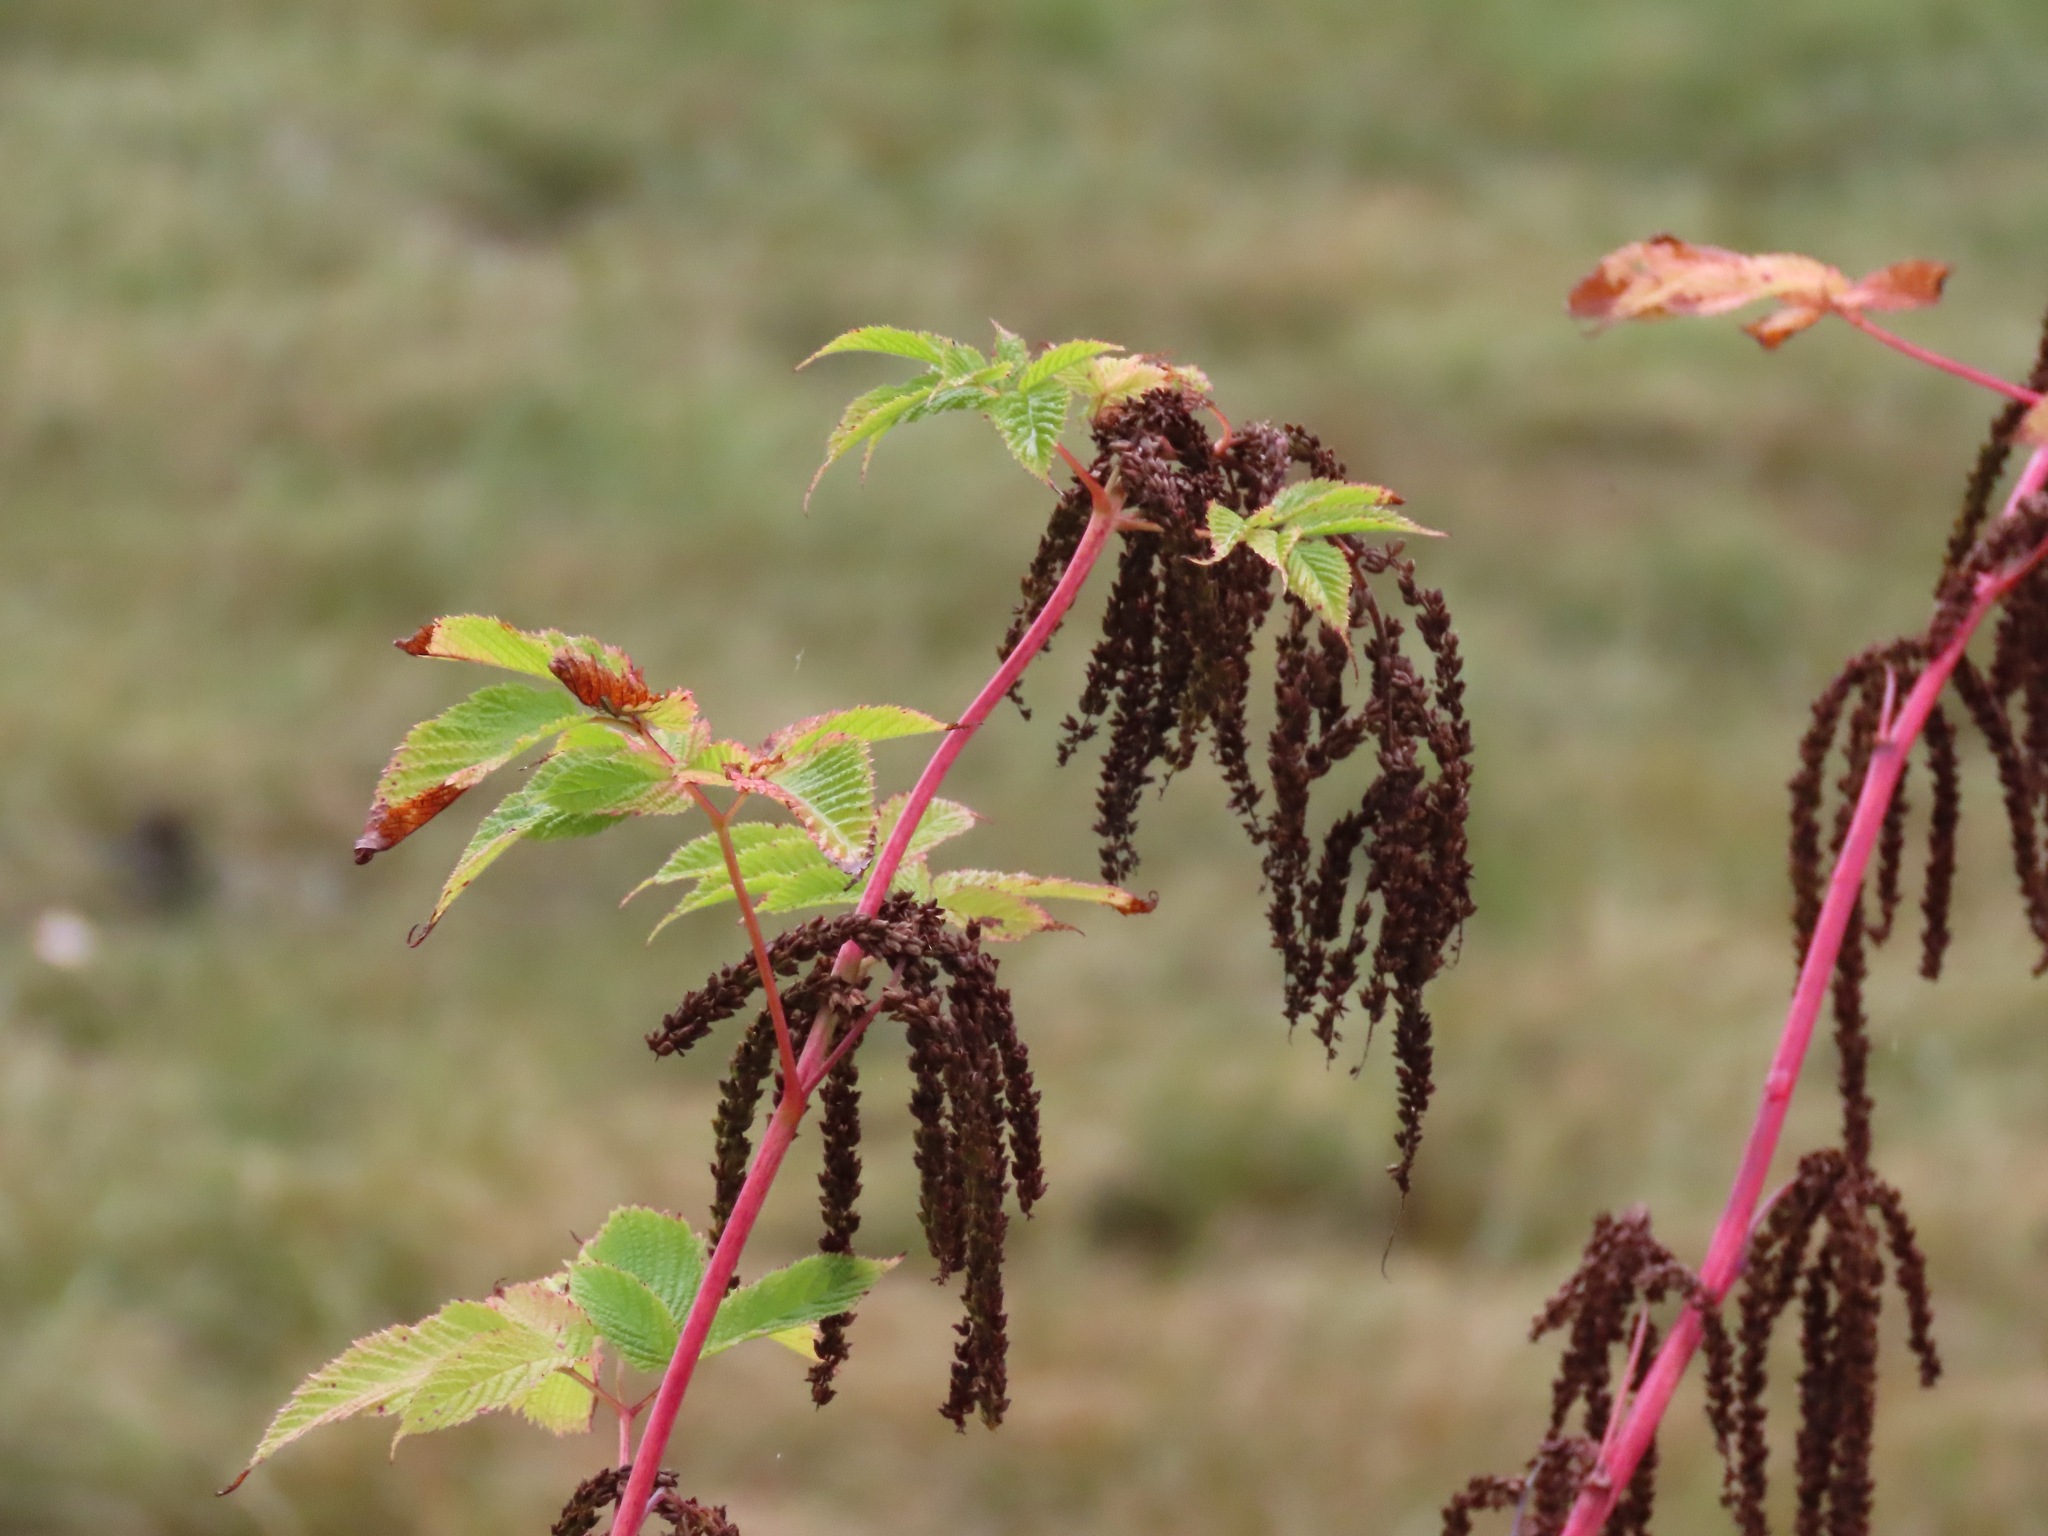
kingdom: Plantae
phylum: Tracheophyta
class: Magnoliopsida
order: Rosales
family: Rosaceae
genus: Aruncus
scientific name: Aruncus dioicus
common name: Buck's-beard
